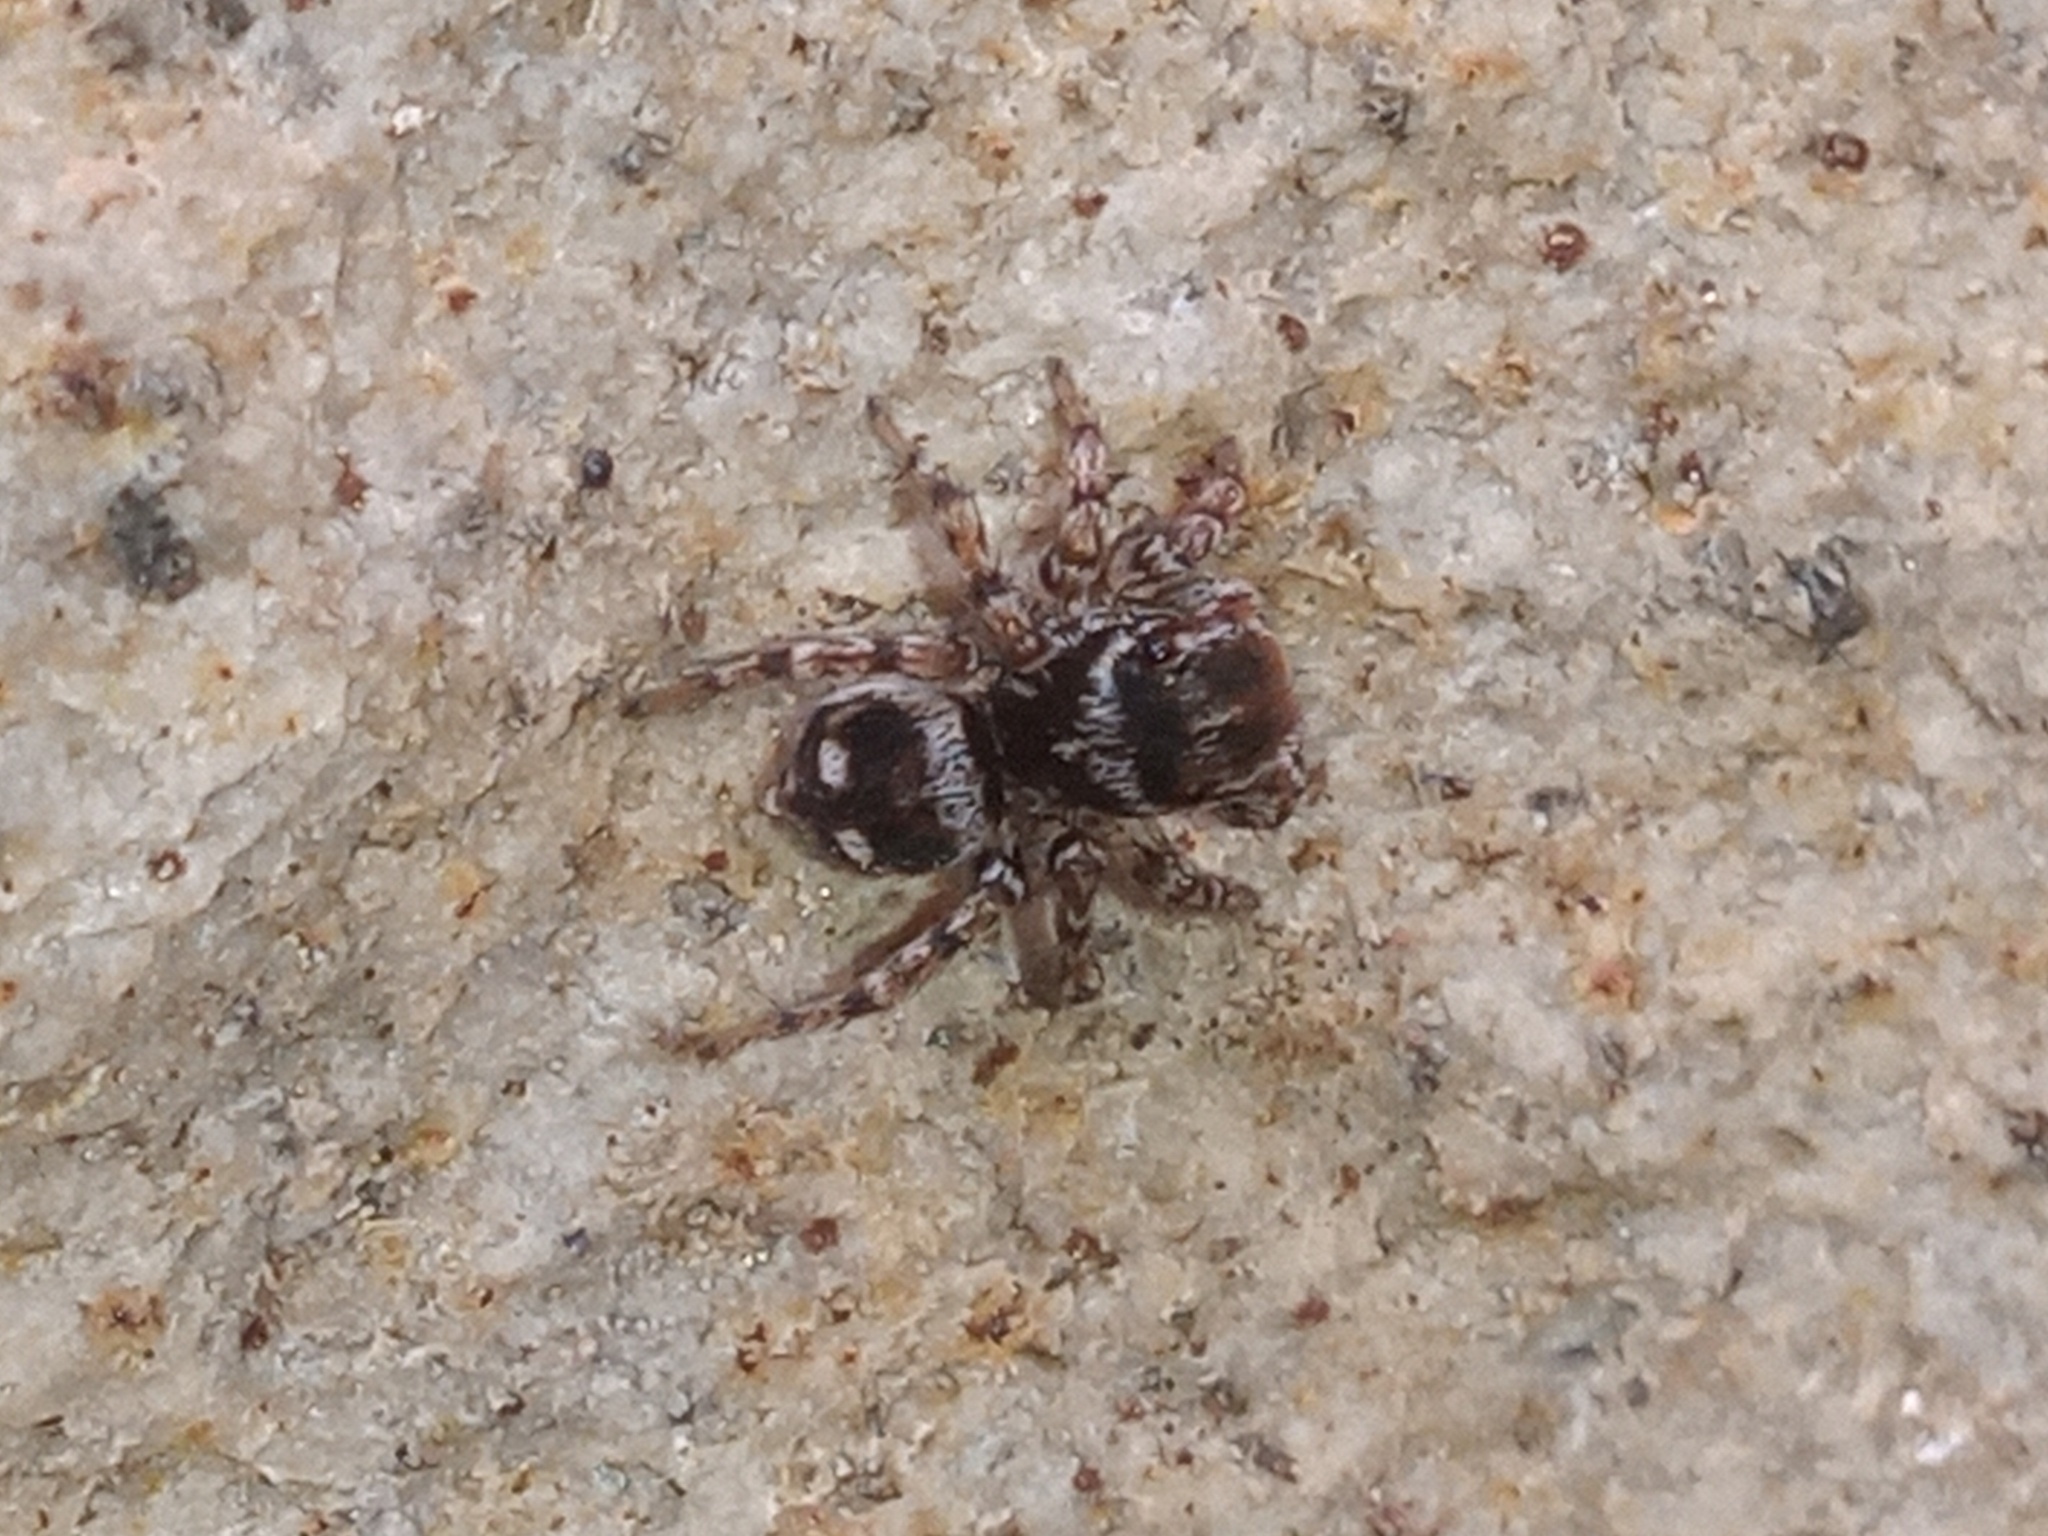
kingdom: Animalia
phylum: Arthropoda
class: Arachnida
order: Araneae
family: Salticidae
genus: Naphrys
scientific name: Naphrys acerba
